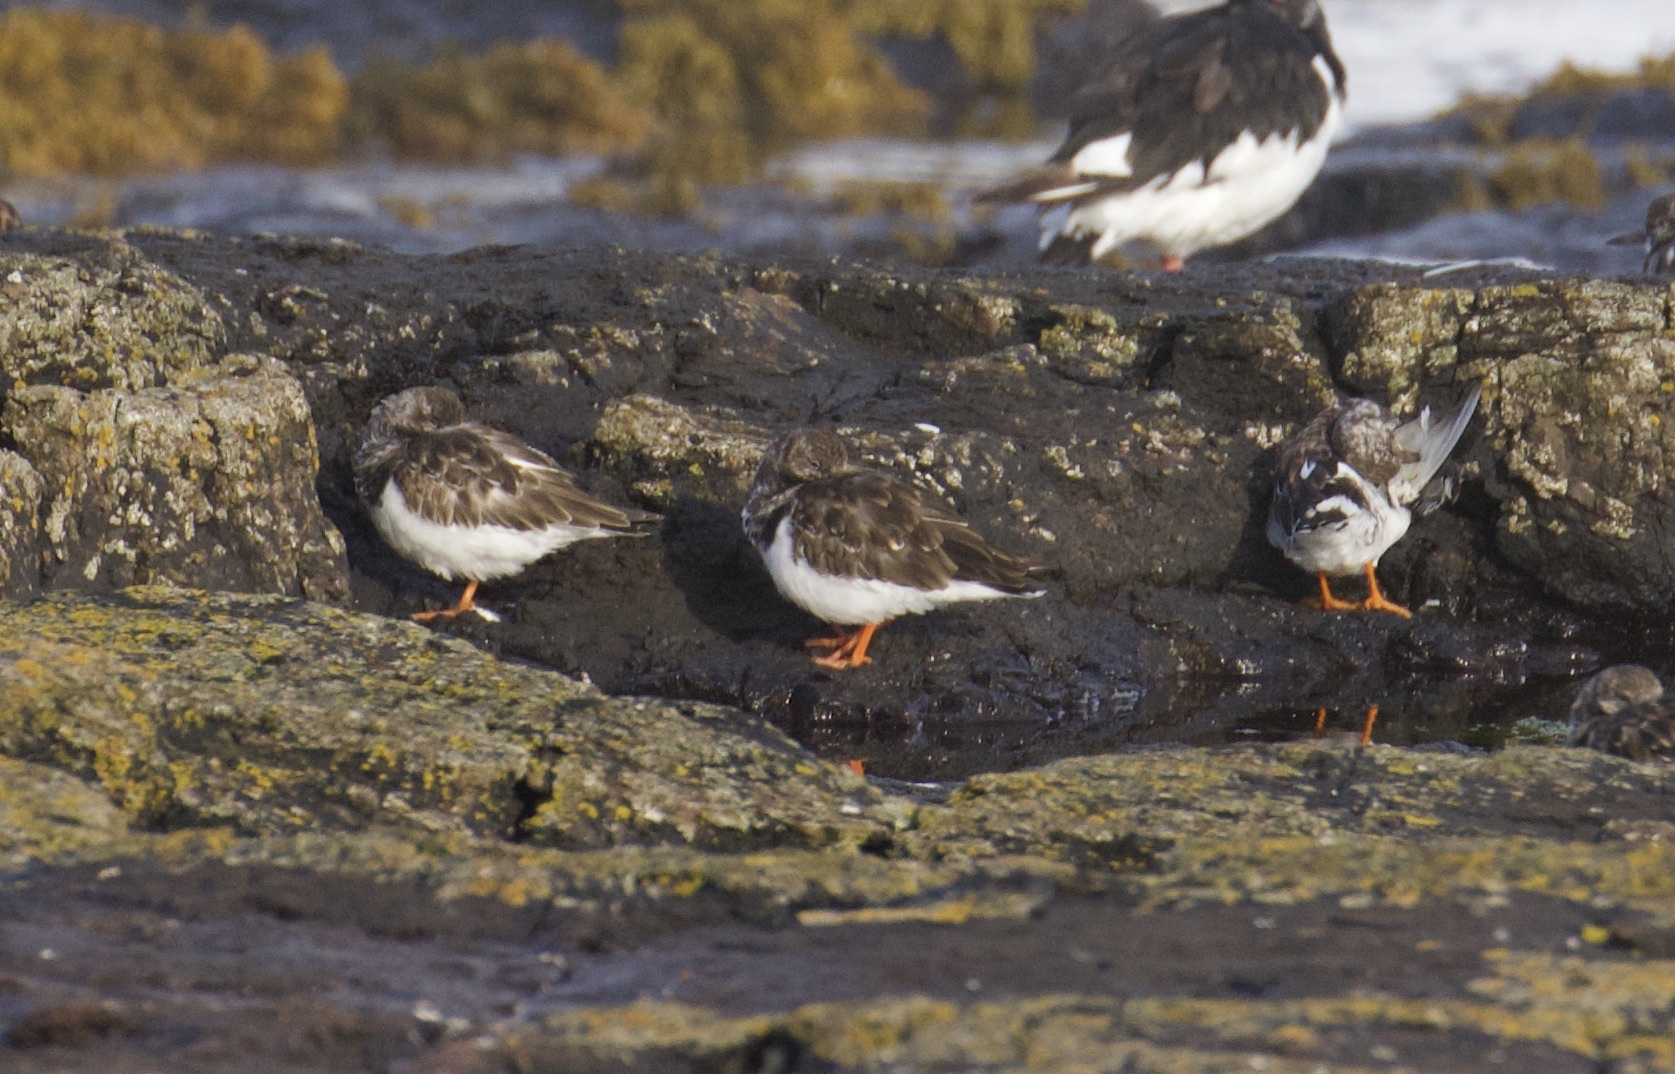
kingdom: Animalia
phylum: Chordata
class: Aves
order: Charadriiformes
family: Scolopacidae
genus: Arenaria
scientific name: Arenaria interpres
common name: Ruddy turnstone
